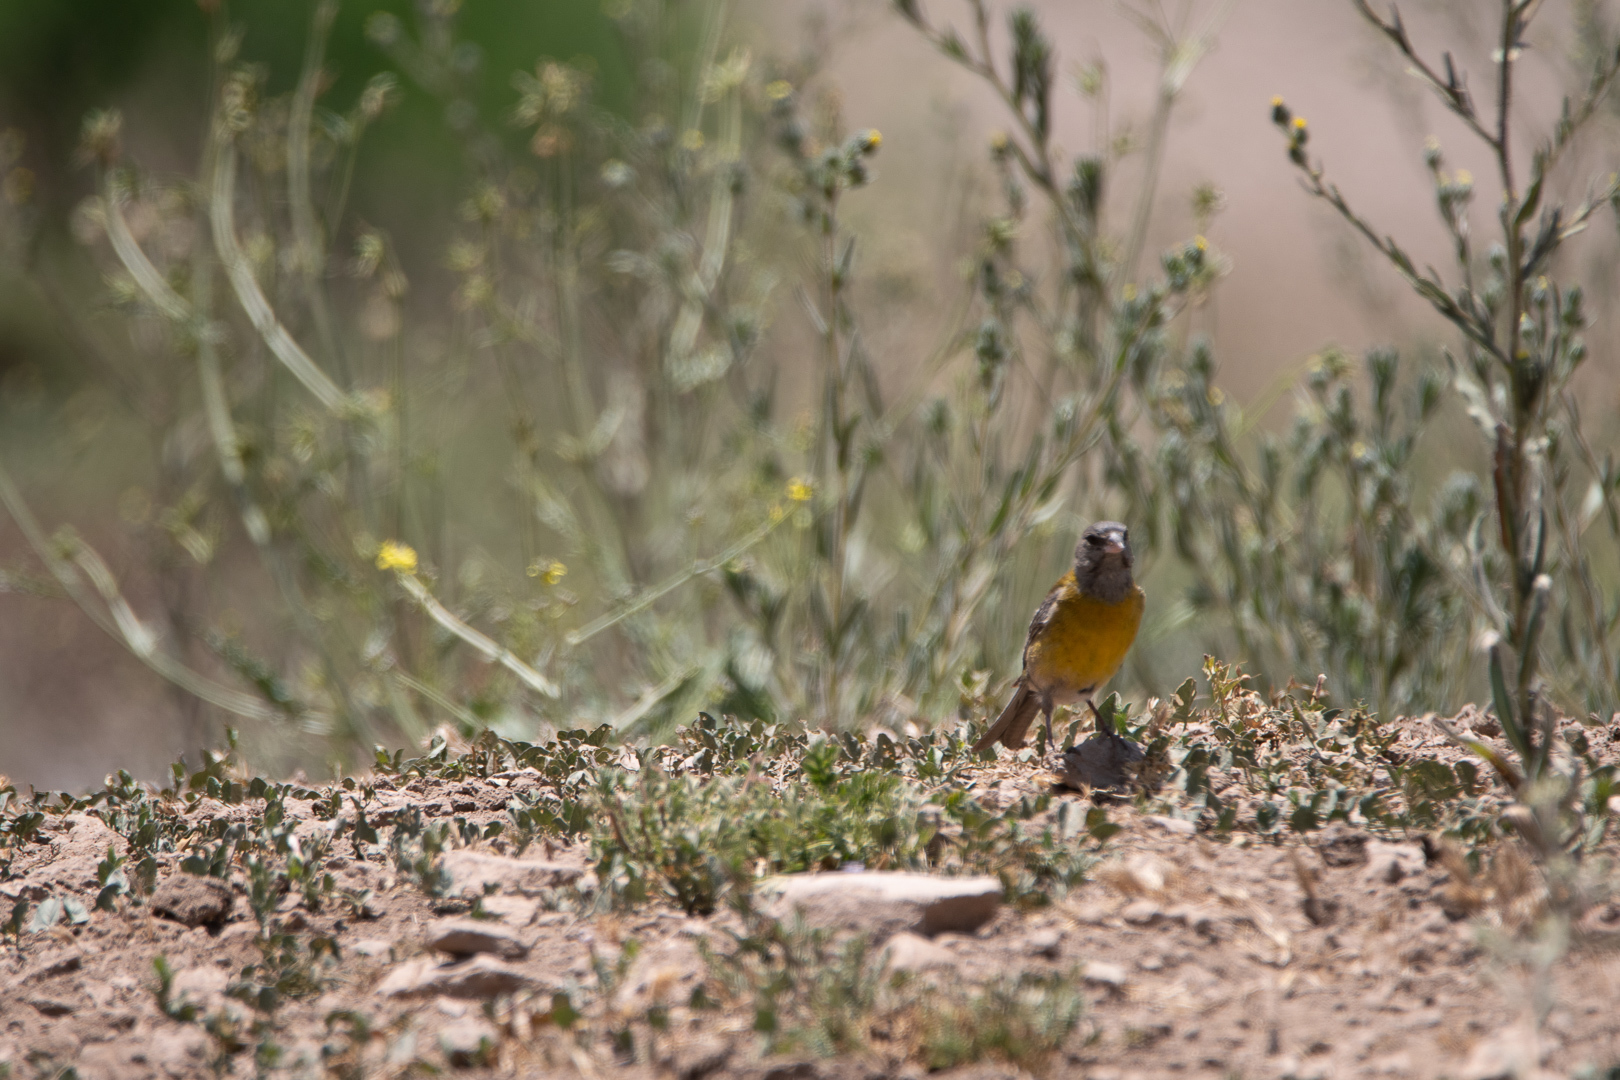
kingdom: Animalia
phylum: Chordata
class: Aves
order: Passeriformes
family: Thraupidae
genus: Phrygilus
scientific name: Phrygilus gayi
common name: Grey-hooded sierra finch
